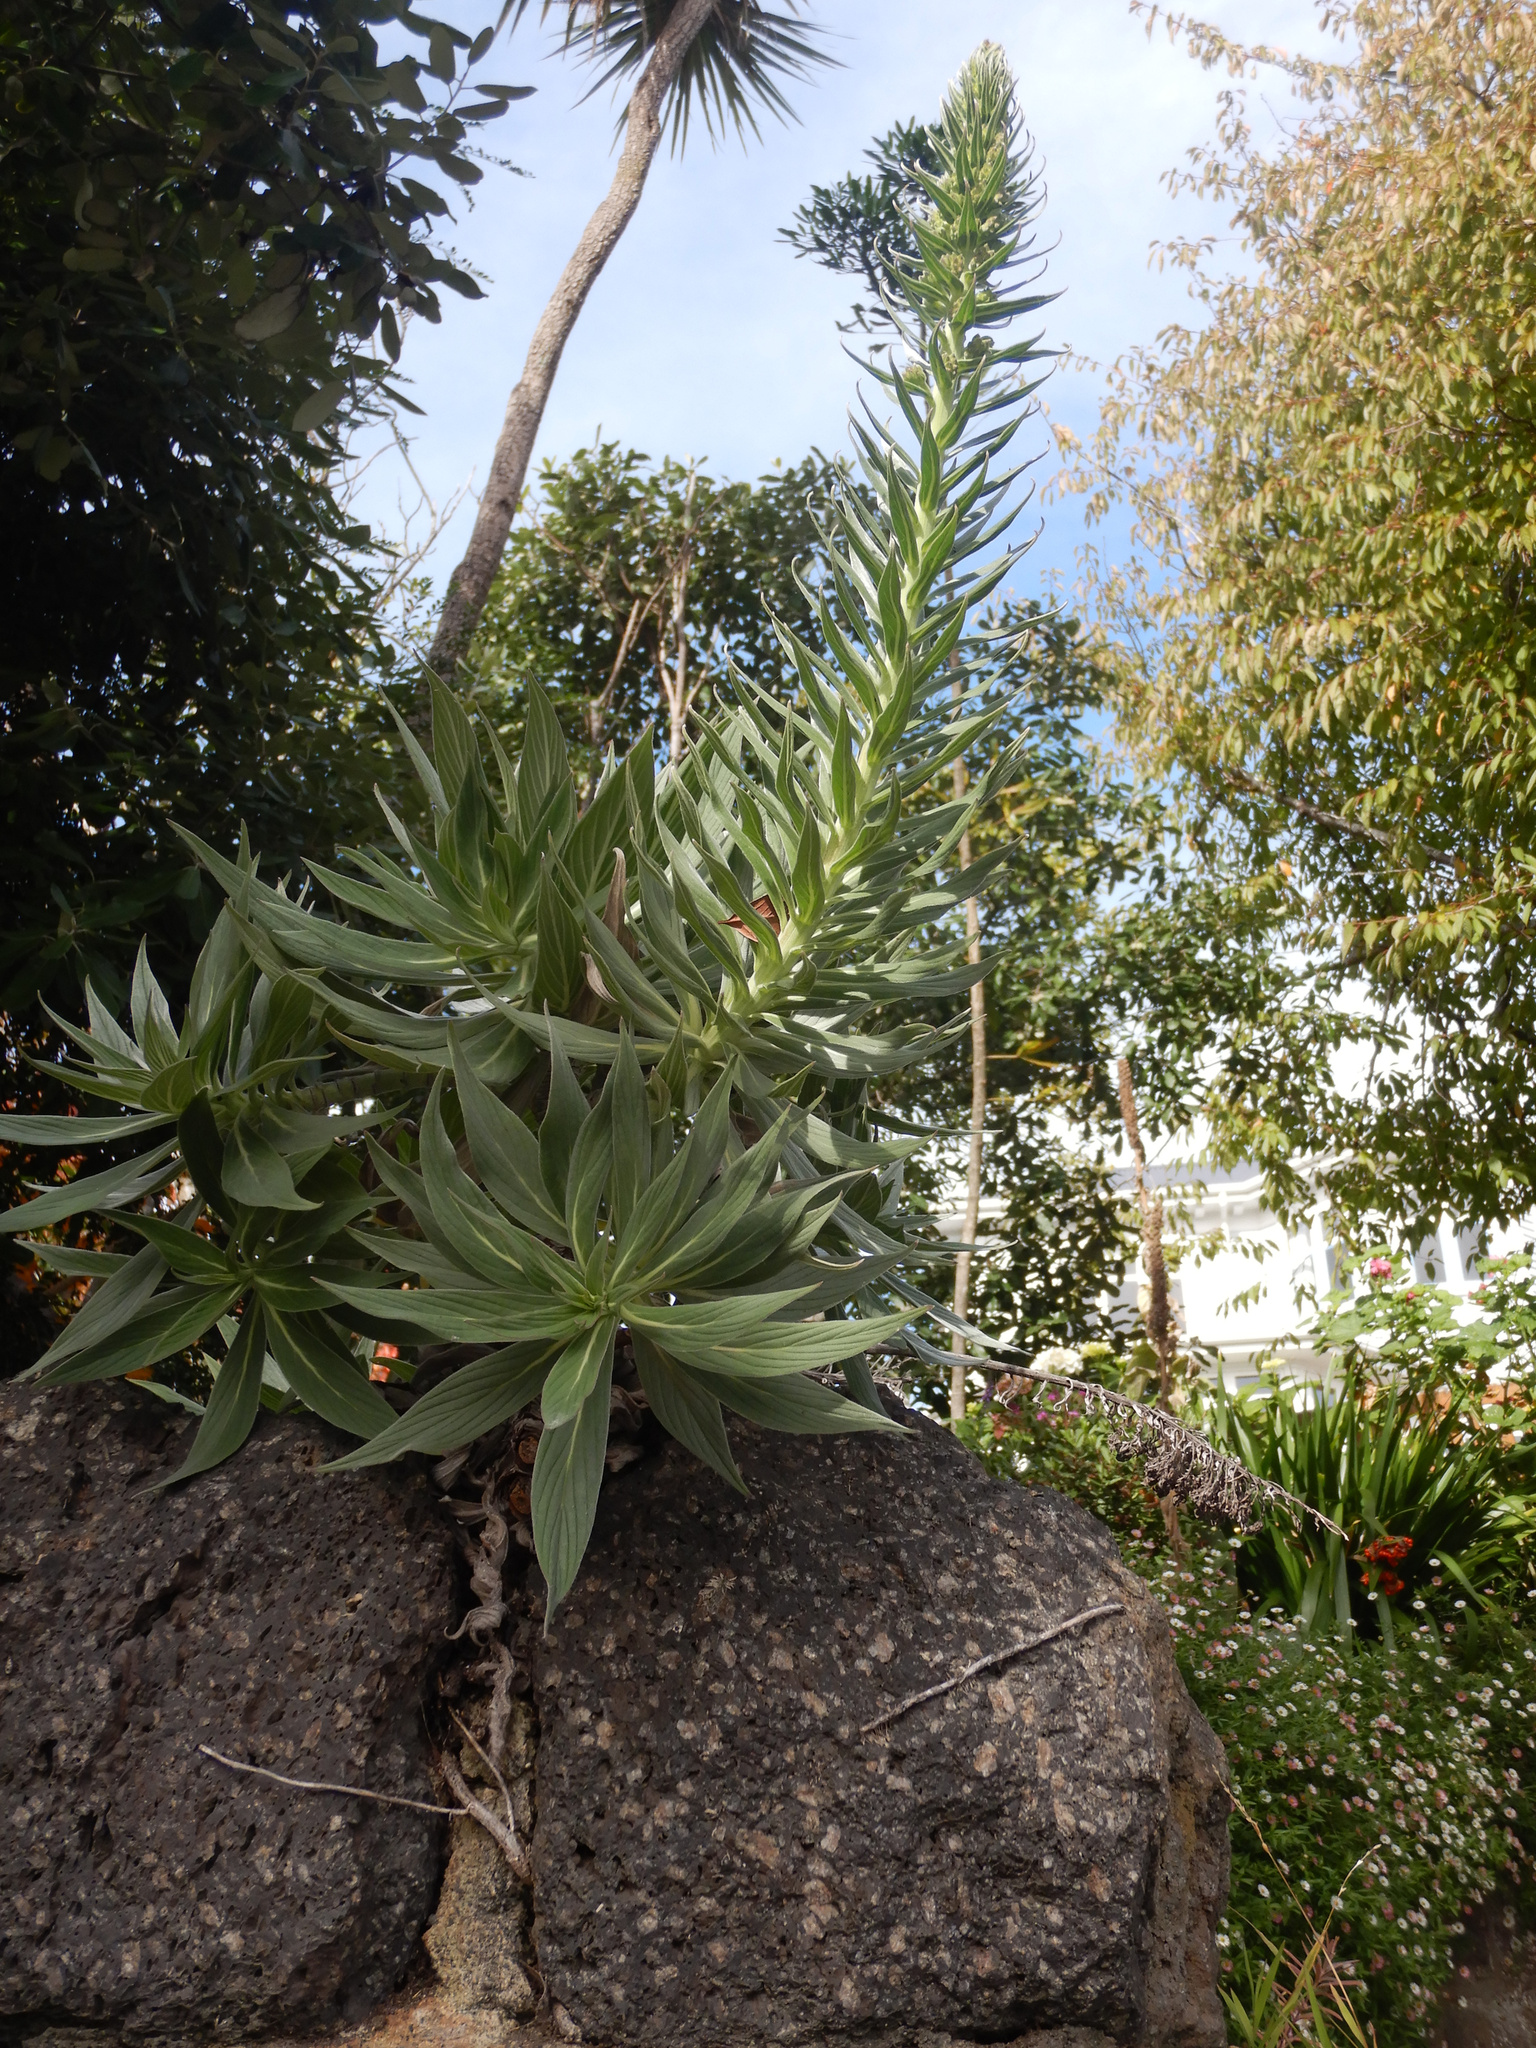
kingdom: Plantae
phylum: Tracheophyta
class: Magnoliopsida
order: Boraginales
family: Boraginaceae
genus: Echium
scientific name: Echium candicans
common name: Pride of madeira
